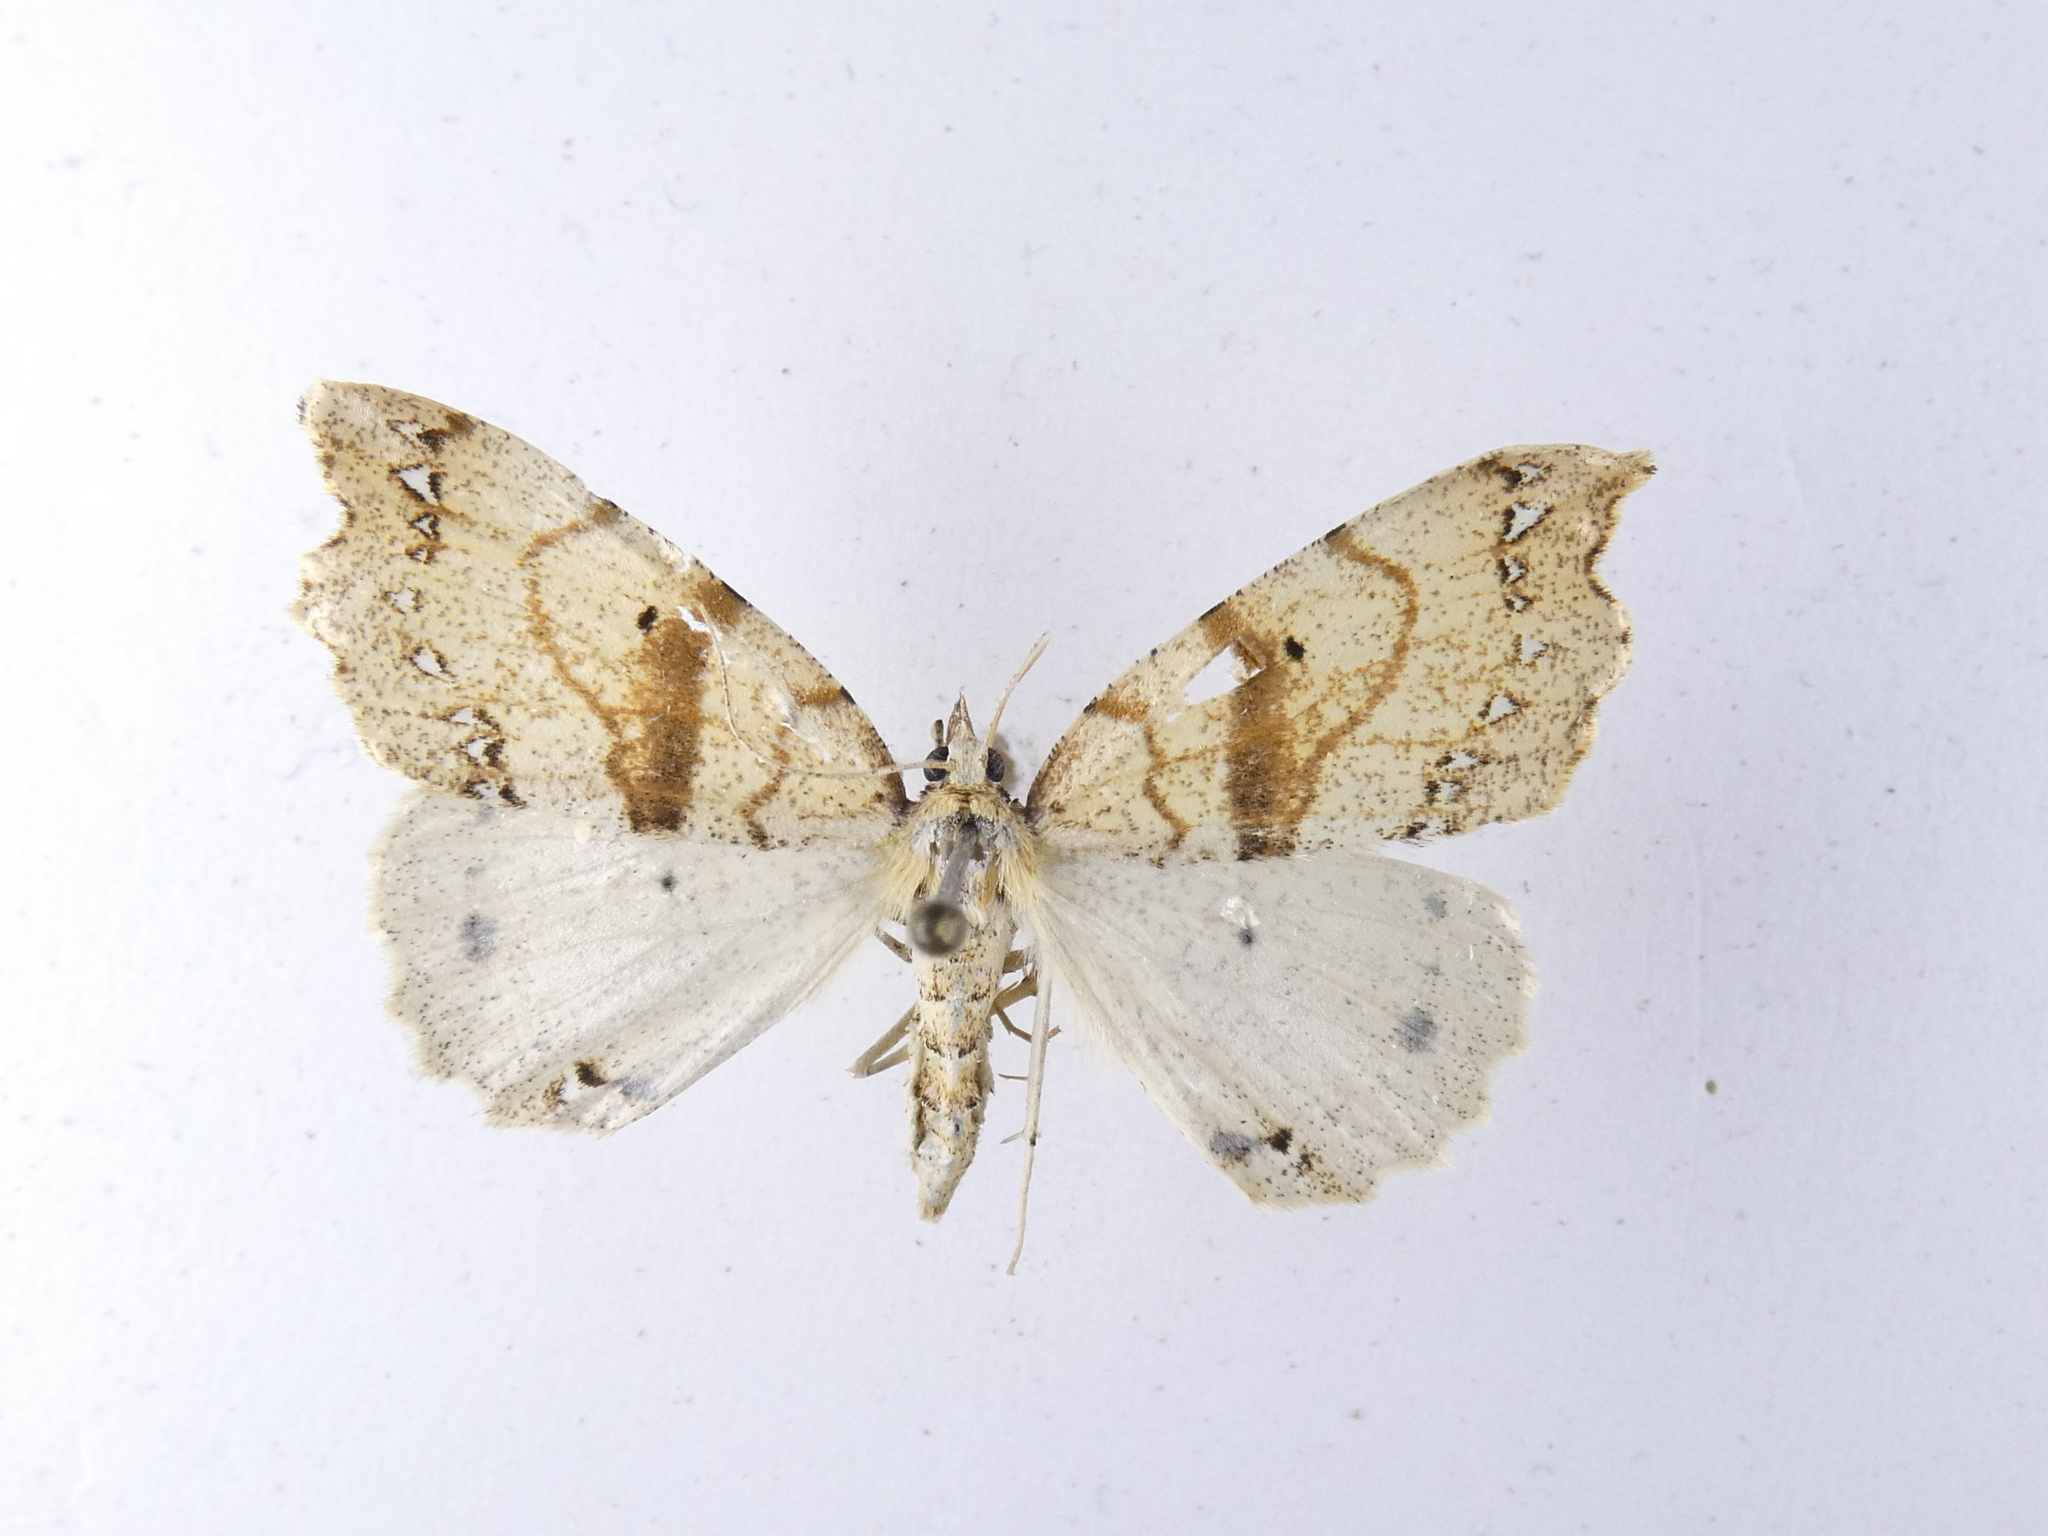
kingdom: Animalia
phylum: Arthropoda
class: Insecta
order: Lepidoptera
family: Geometridae
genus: Chalastra
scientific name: Chalastra pellurgata
